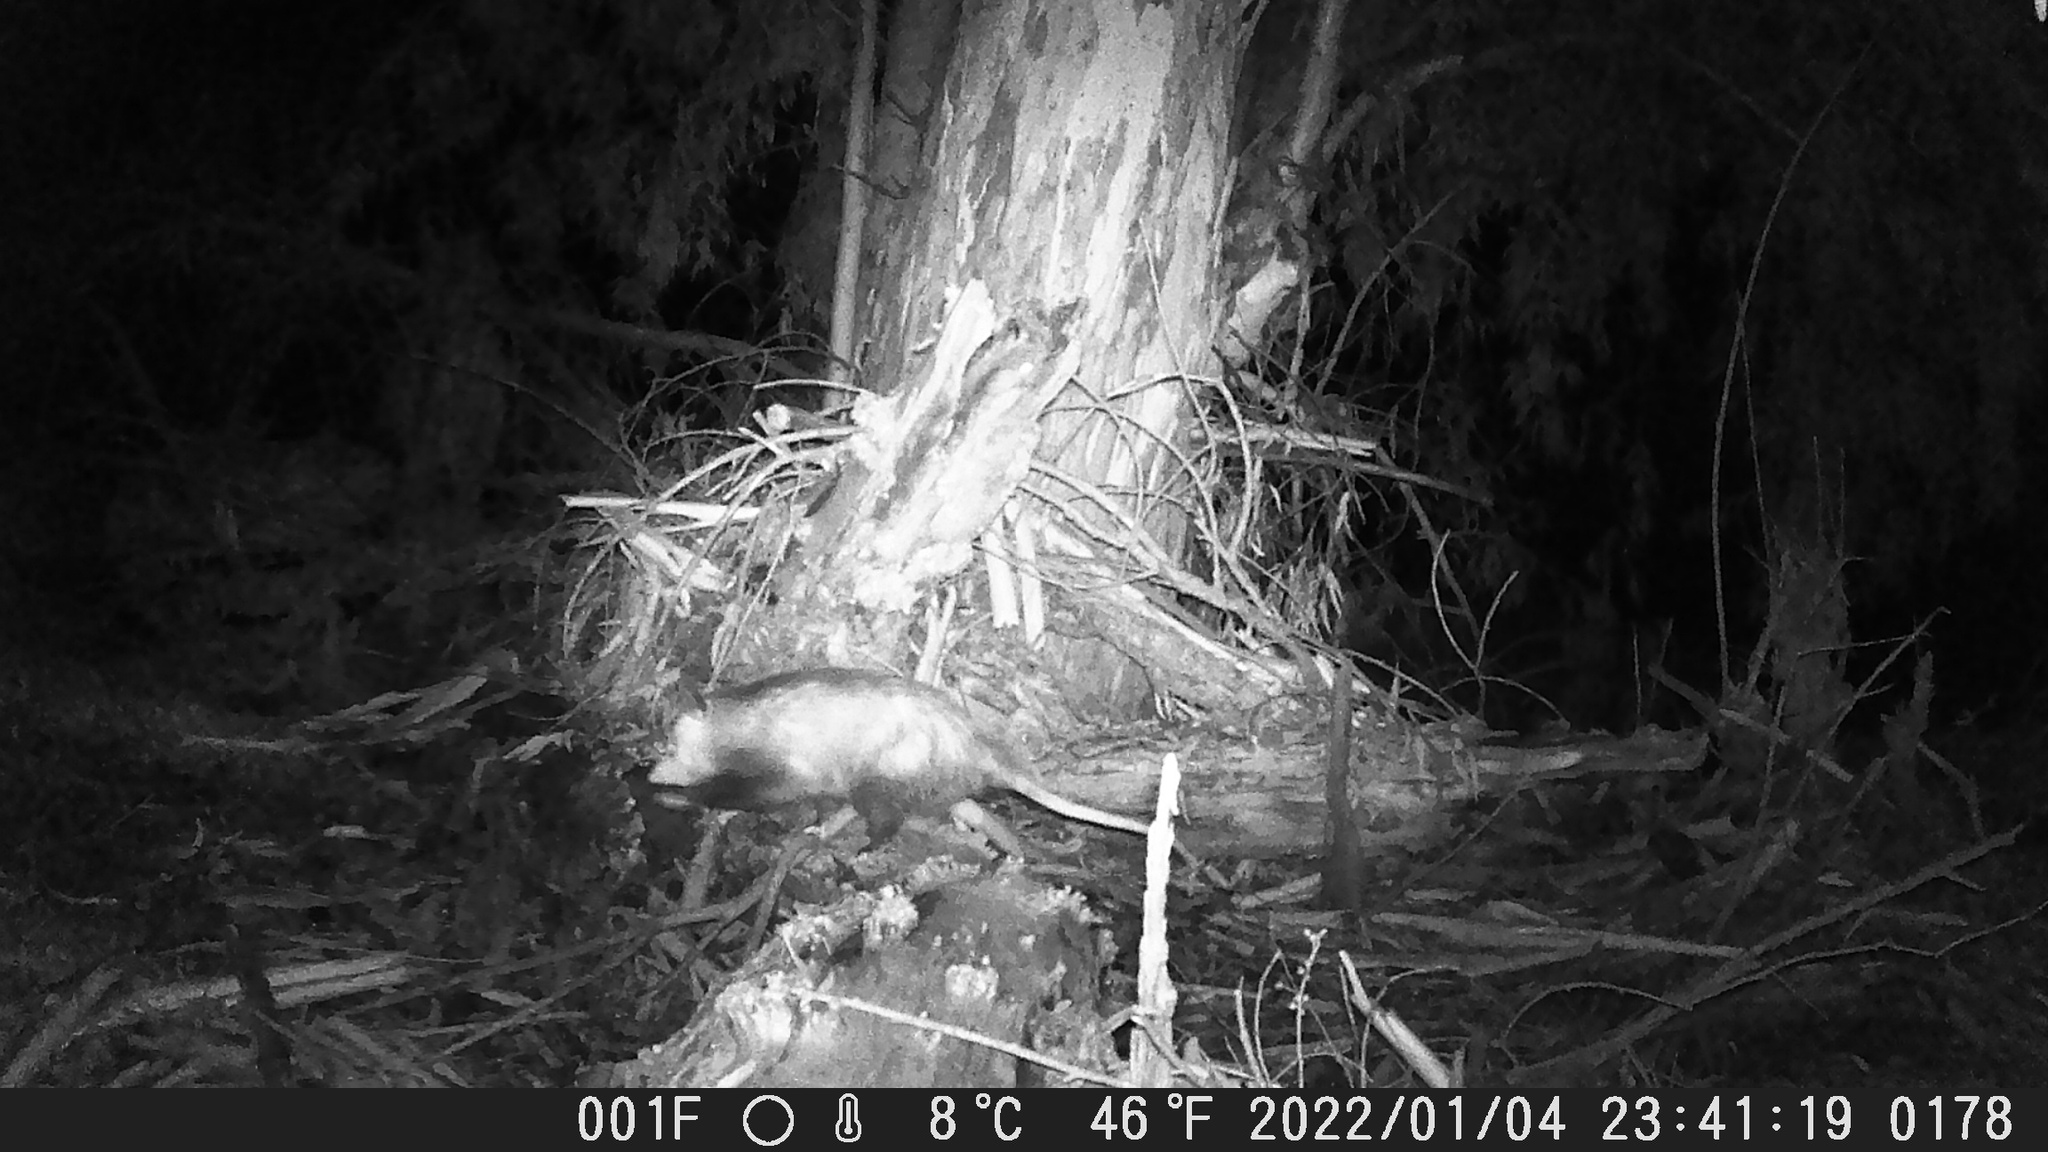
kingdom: Animalia
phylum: Chordata
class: Mammalia
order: Didelphimorphia
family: Didelphidae
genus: Didelphis
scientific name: Didelphis virginiana
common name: Virginia opossum
